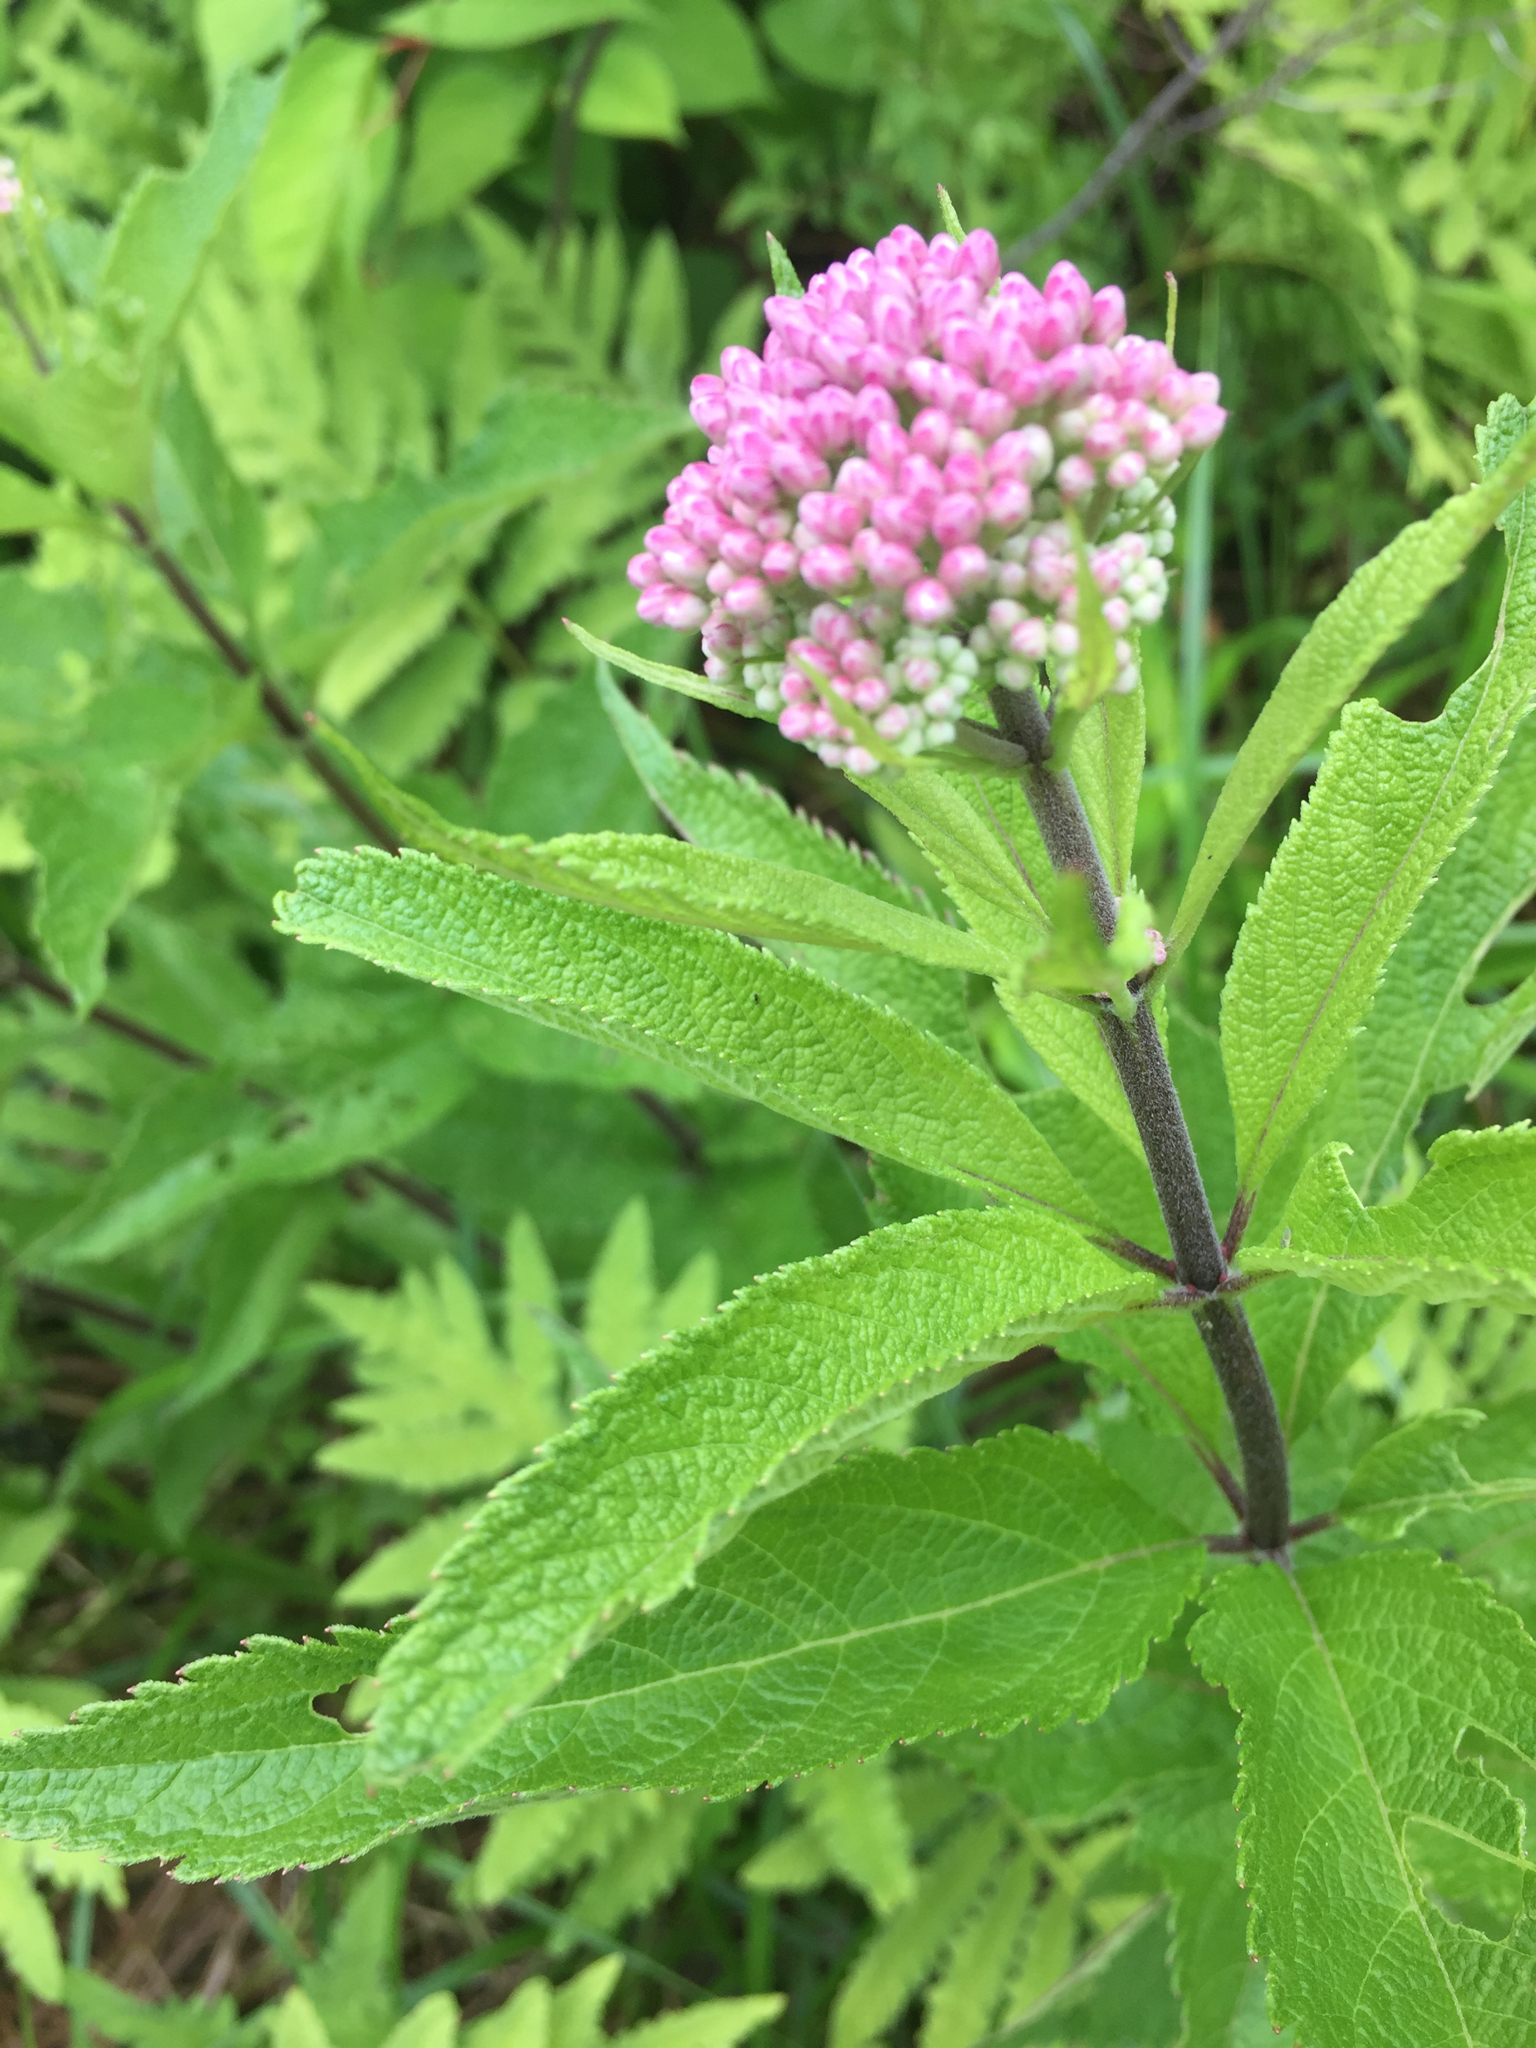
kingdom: Plantae
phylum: Tracheophyta
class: Magnoliopsida
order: Asterales
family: Asteraceae
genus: Eutrochium
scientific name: Eutrochium maculatum
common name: Spotted joe pye weed
